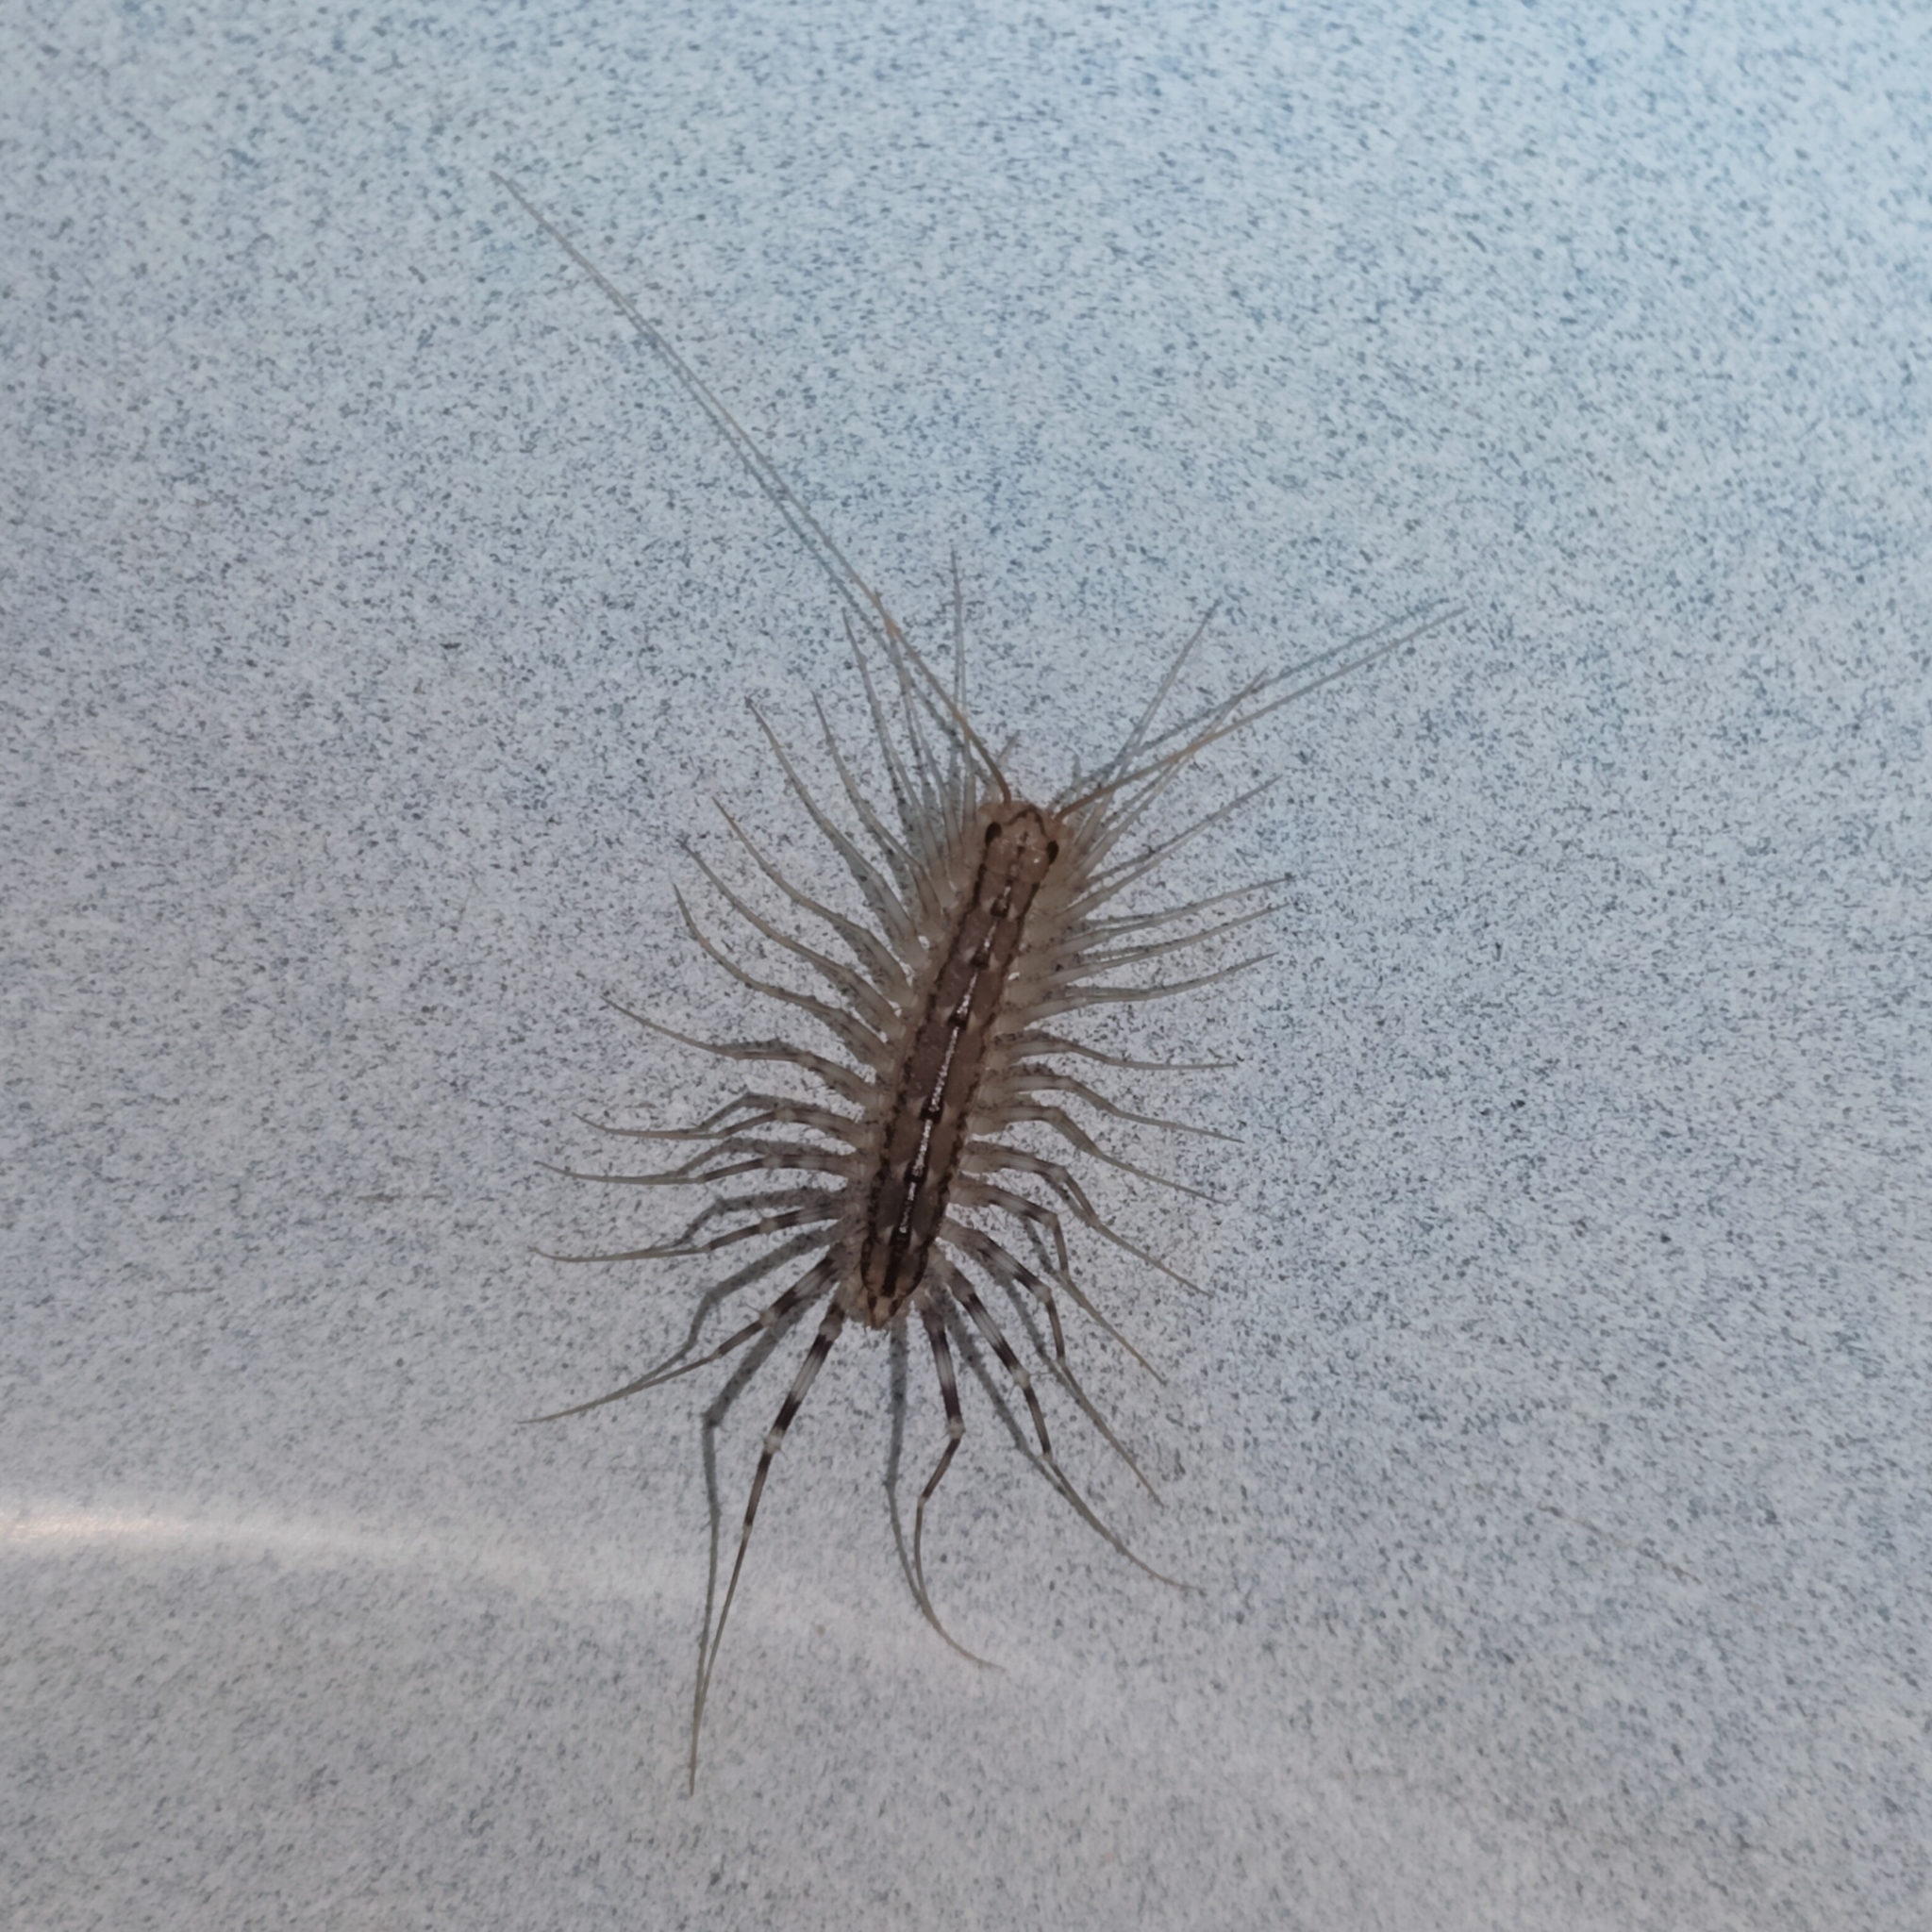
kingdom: Animalia
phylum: Arthropoda
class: Chilopoda
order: Scutigeromorpha
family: Scutigeridae
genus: Scutigera
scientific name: Scutigera coleoptrata
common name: House centipede
